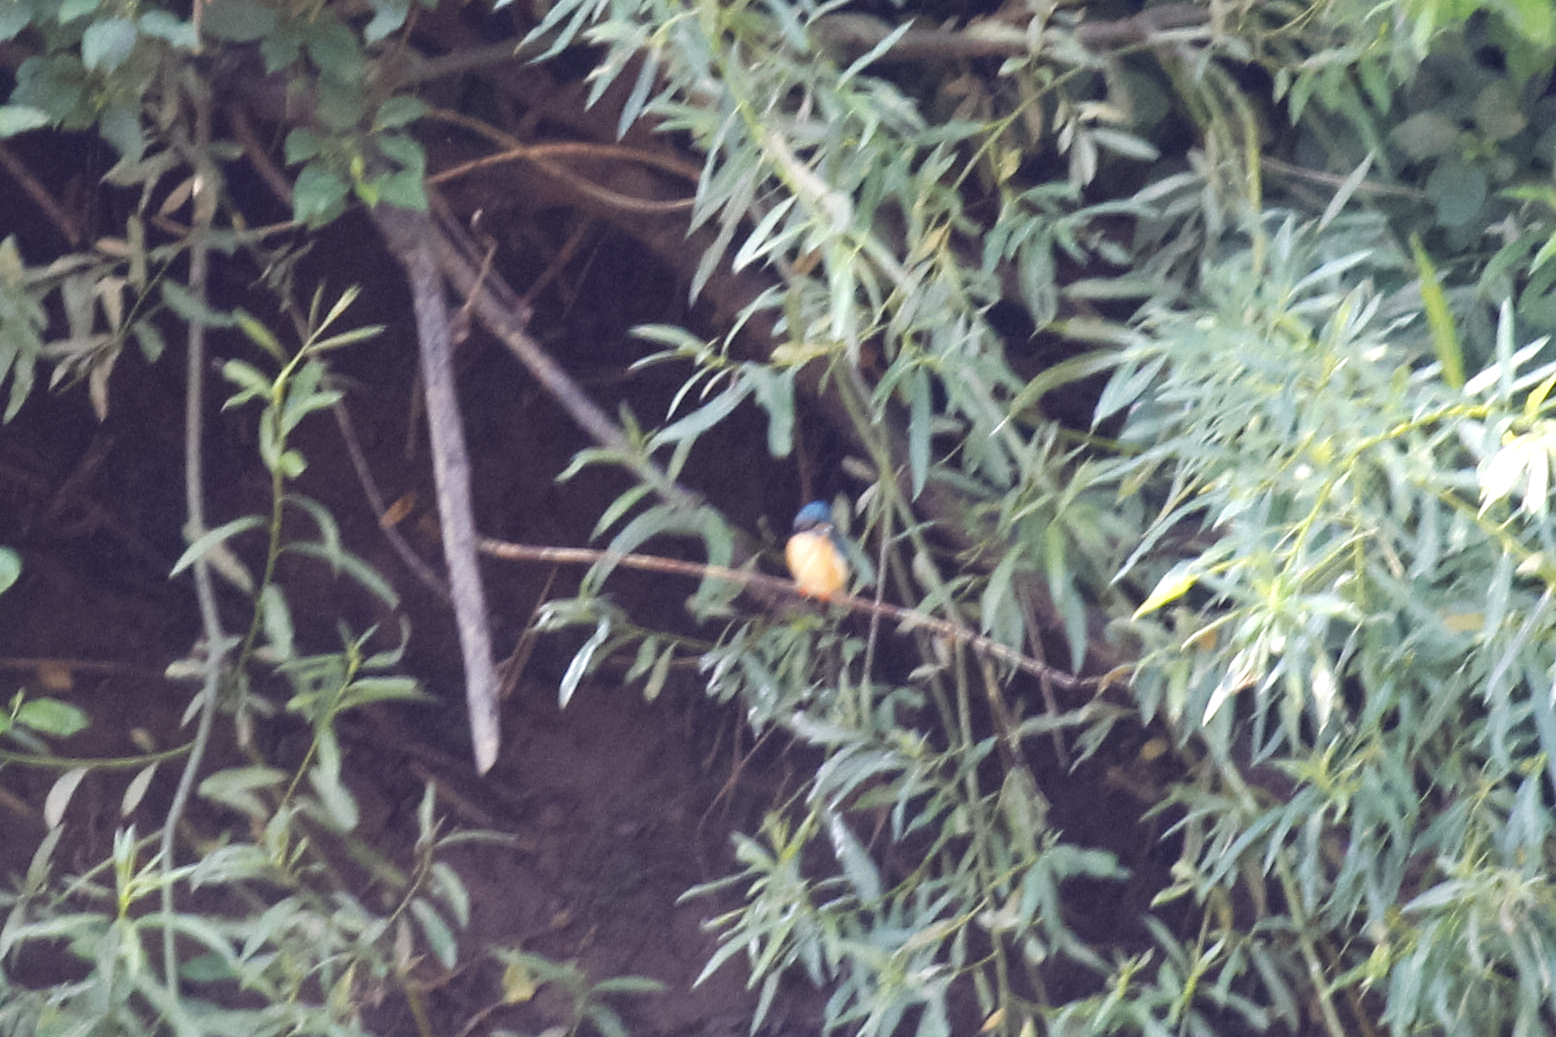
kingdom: Animalia
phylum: Chordata
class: Aves
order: Coraciiformes
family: Alcedinidae
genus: Alcedo
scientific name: Alcedo atthis
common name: Common kingfisher
